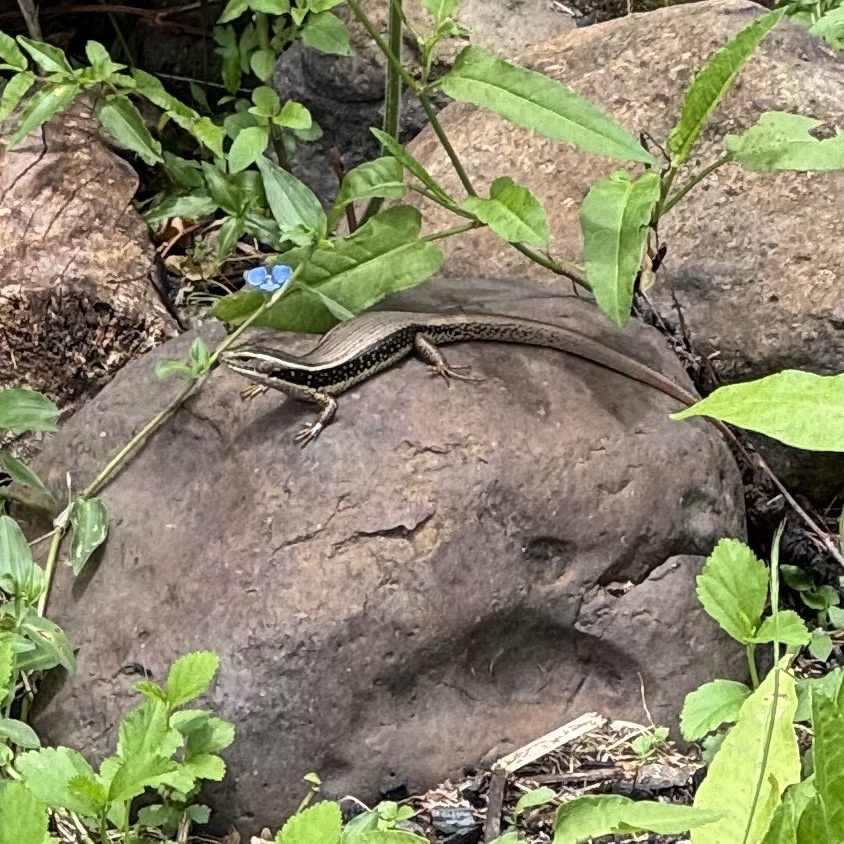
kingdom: Animalia
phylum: Chordata
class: Squamata
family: Scincidae
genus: Eulamprus
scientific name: Eulamprus quoyii
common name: Eastern water skink
